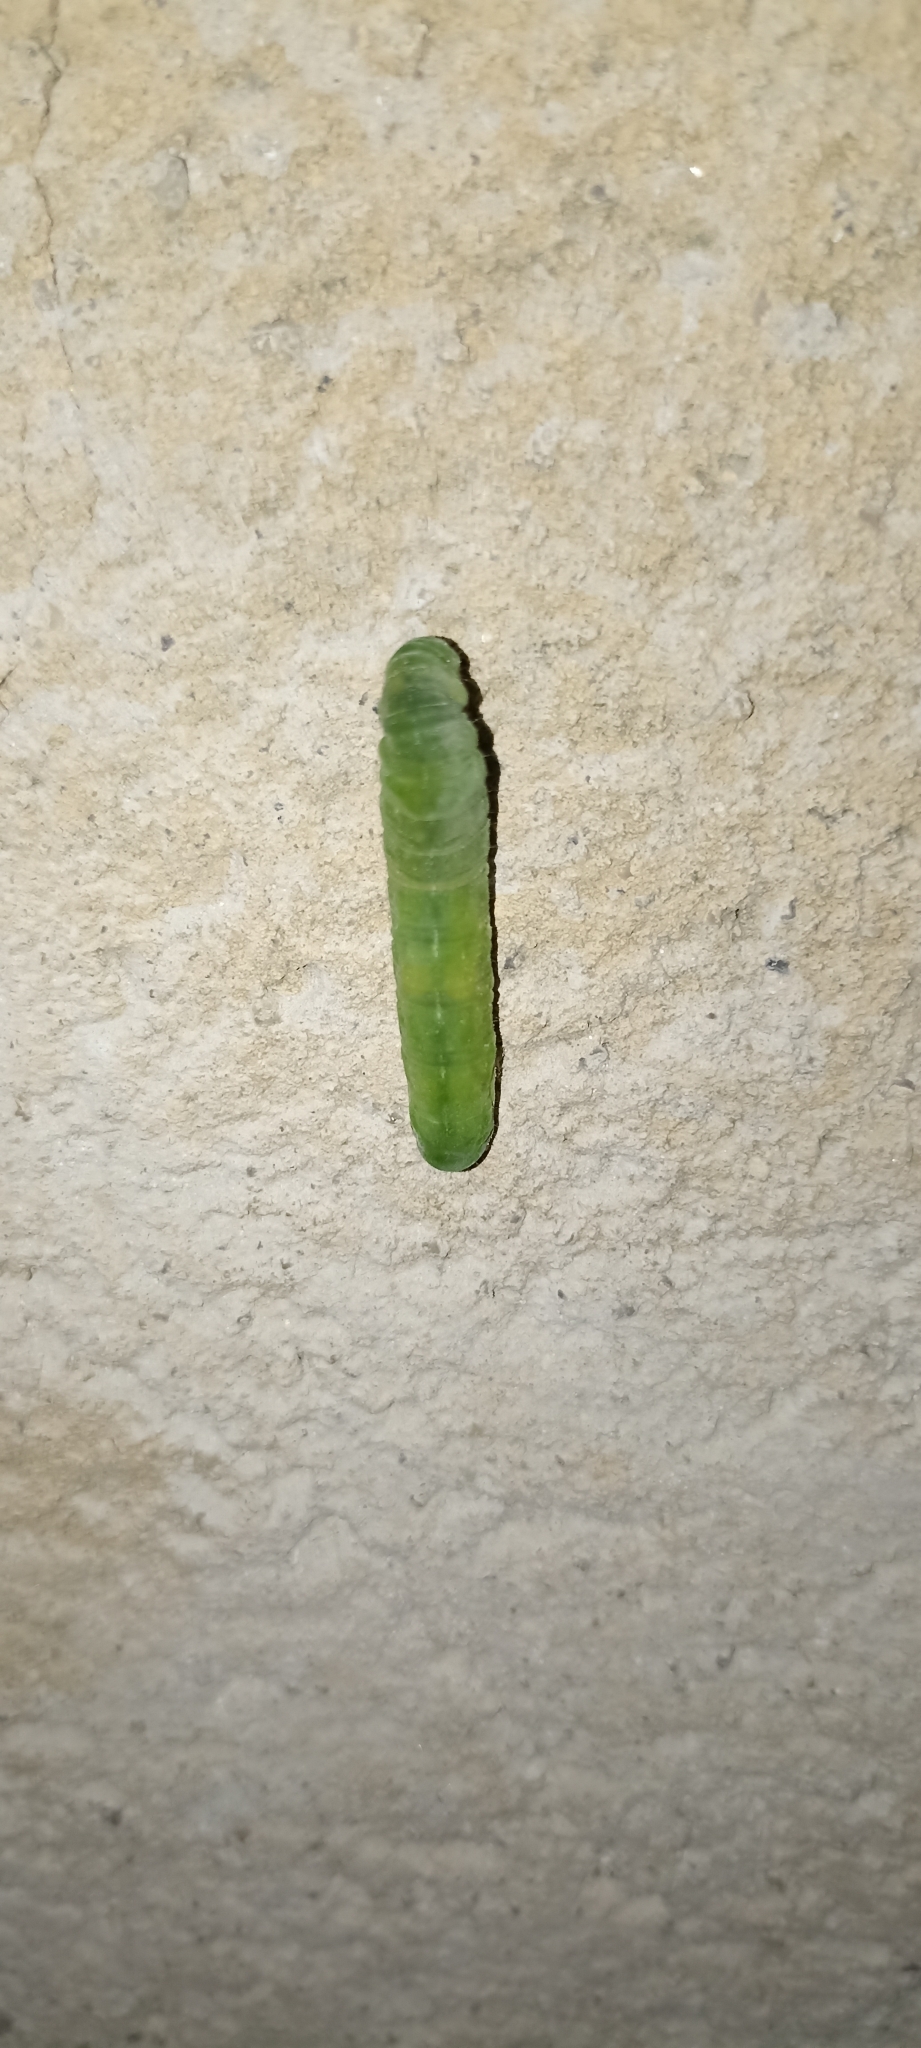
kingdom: Animalia
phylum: Arthropoda
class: Insecta
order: Lepidoptera
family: Noctuidae
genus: Phlogophora
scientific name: Phlogophora meticulosa
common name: Angle shades
